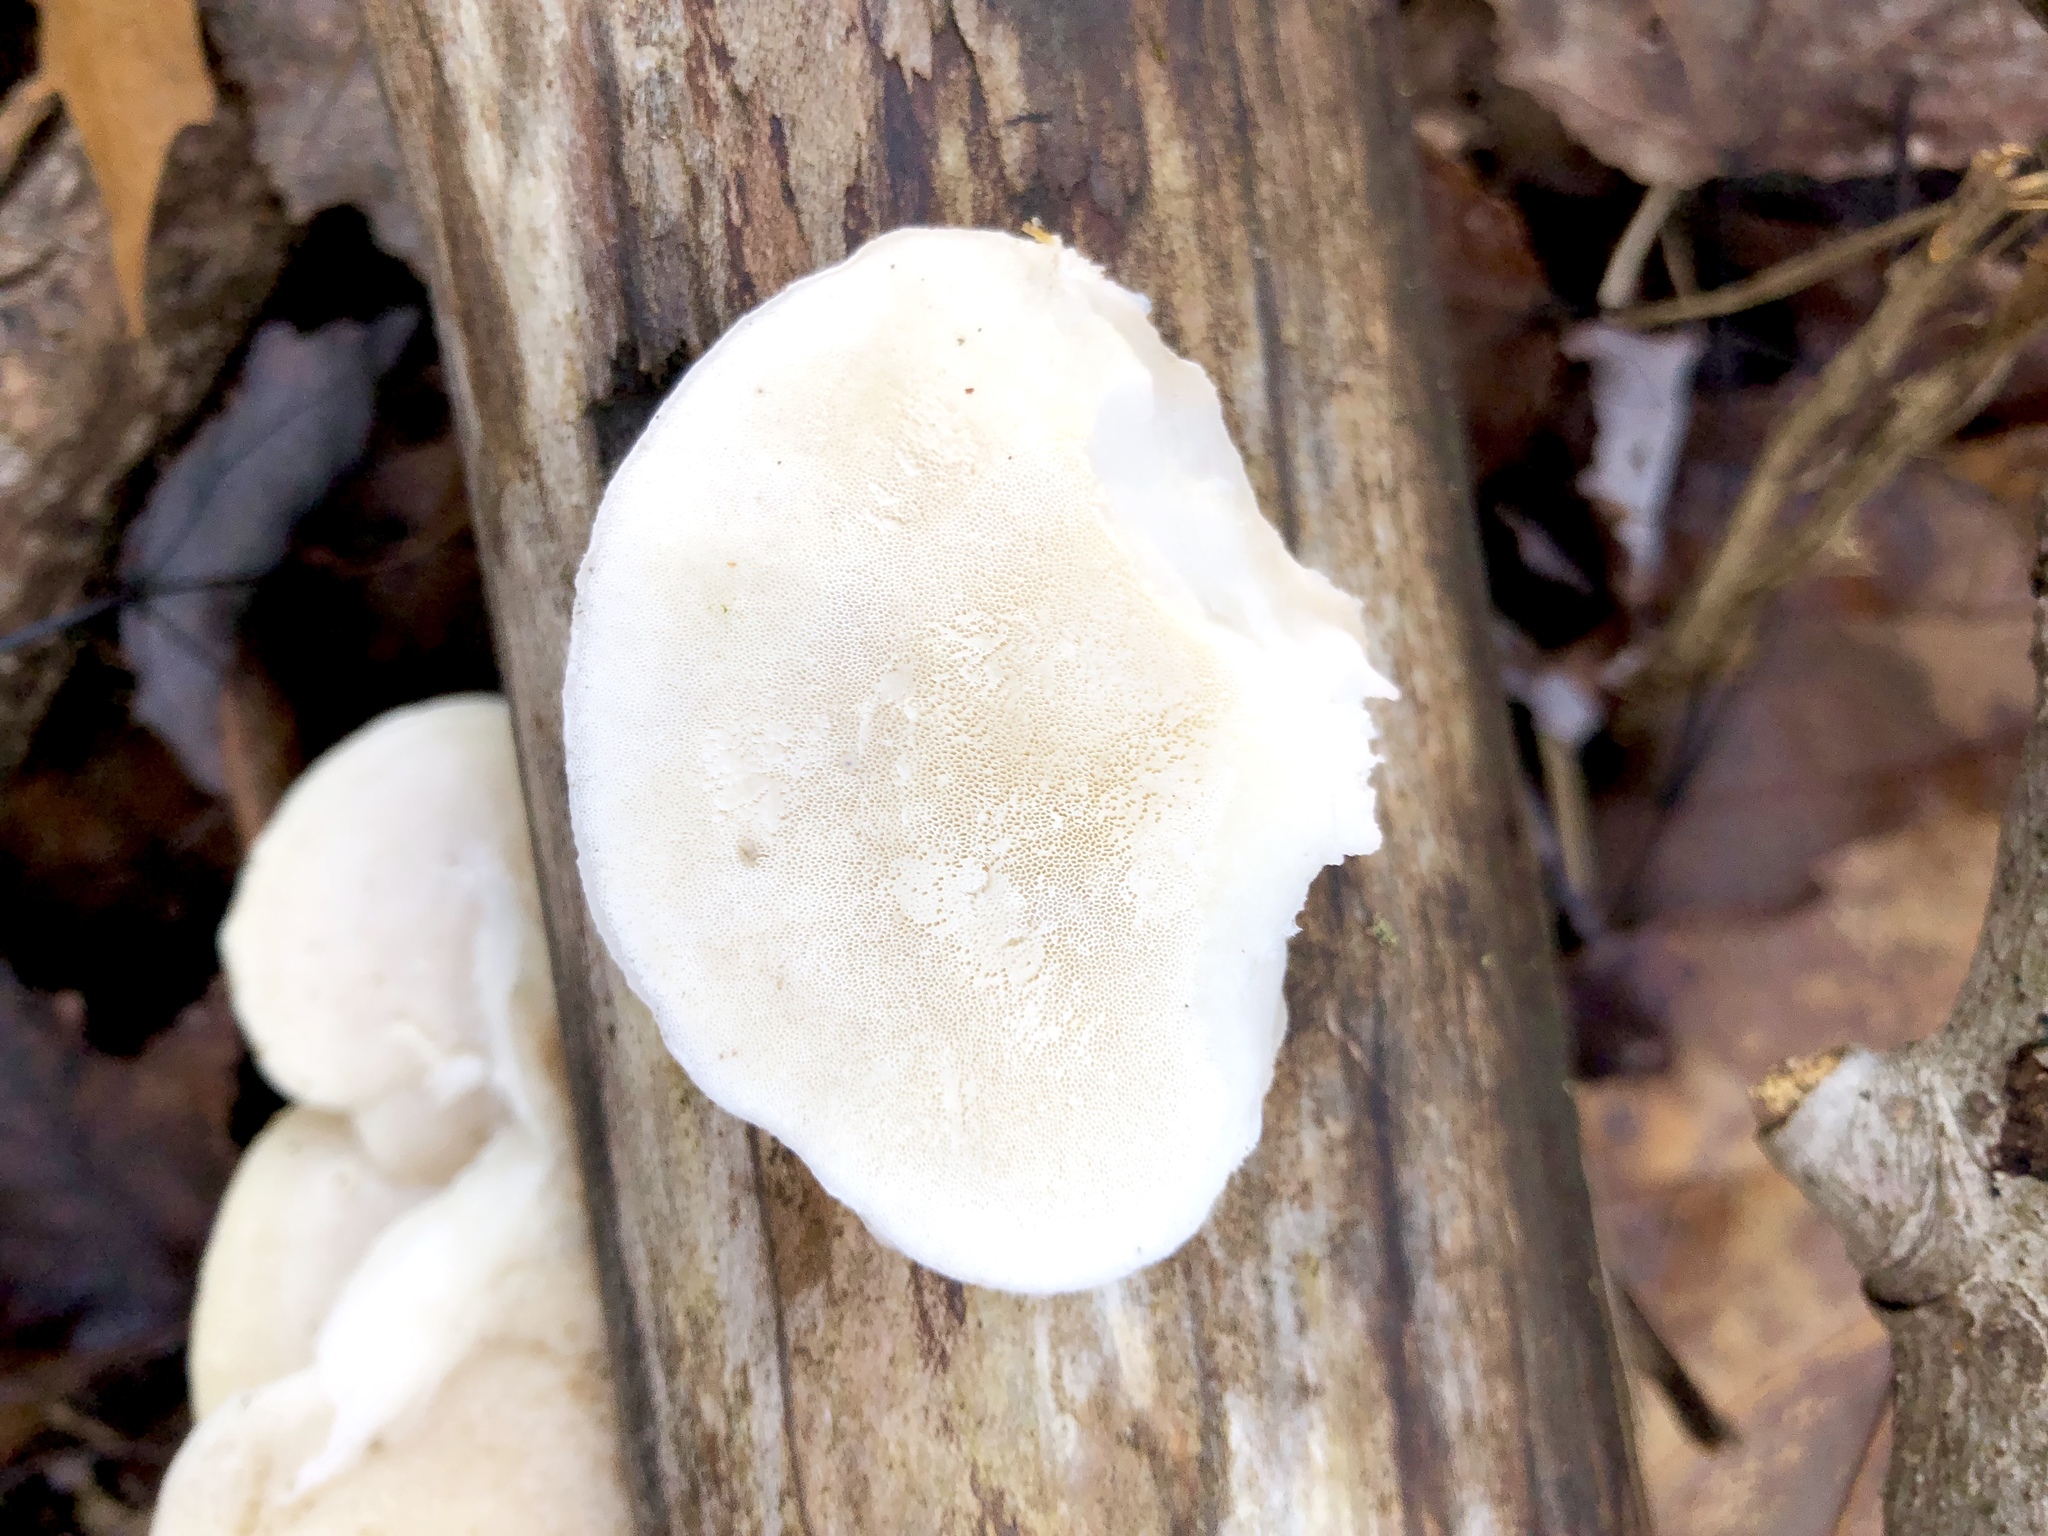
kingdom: Fungi
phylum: Basidiomycota
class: Agaricomycetes
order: Polyporales
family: Incrustoporiaceae
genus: Tyromyces
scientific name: Tyromyces chioneus
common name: White cheese polypore
